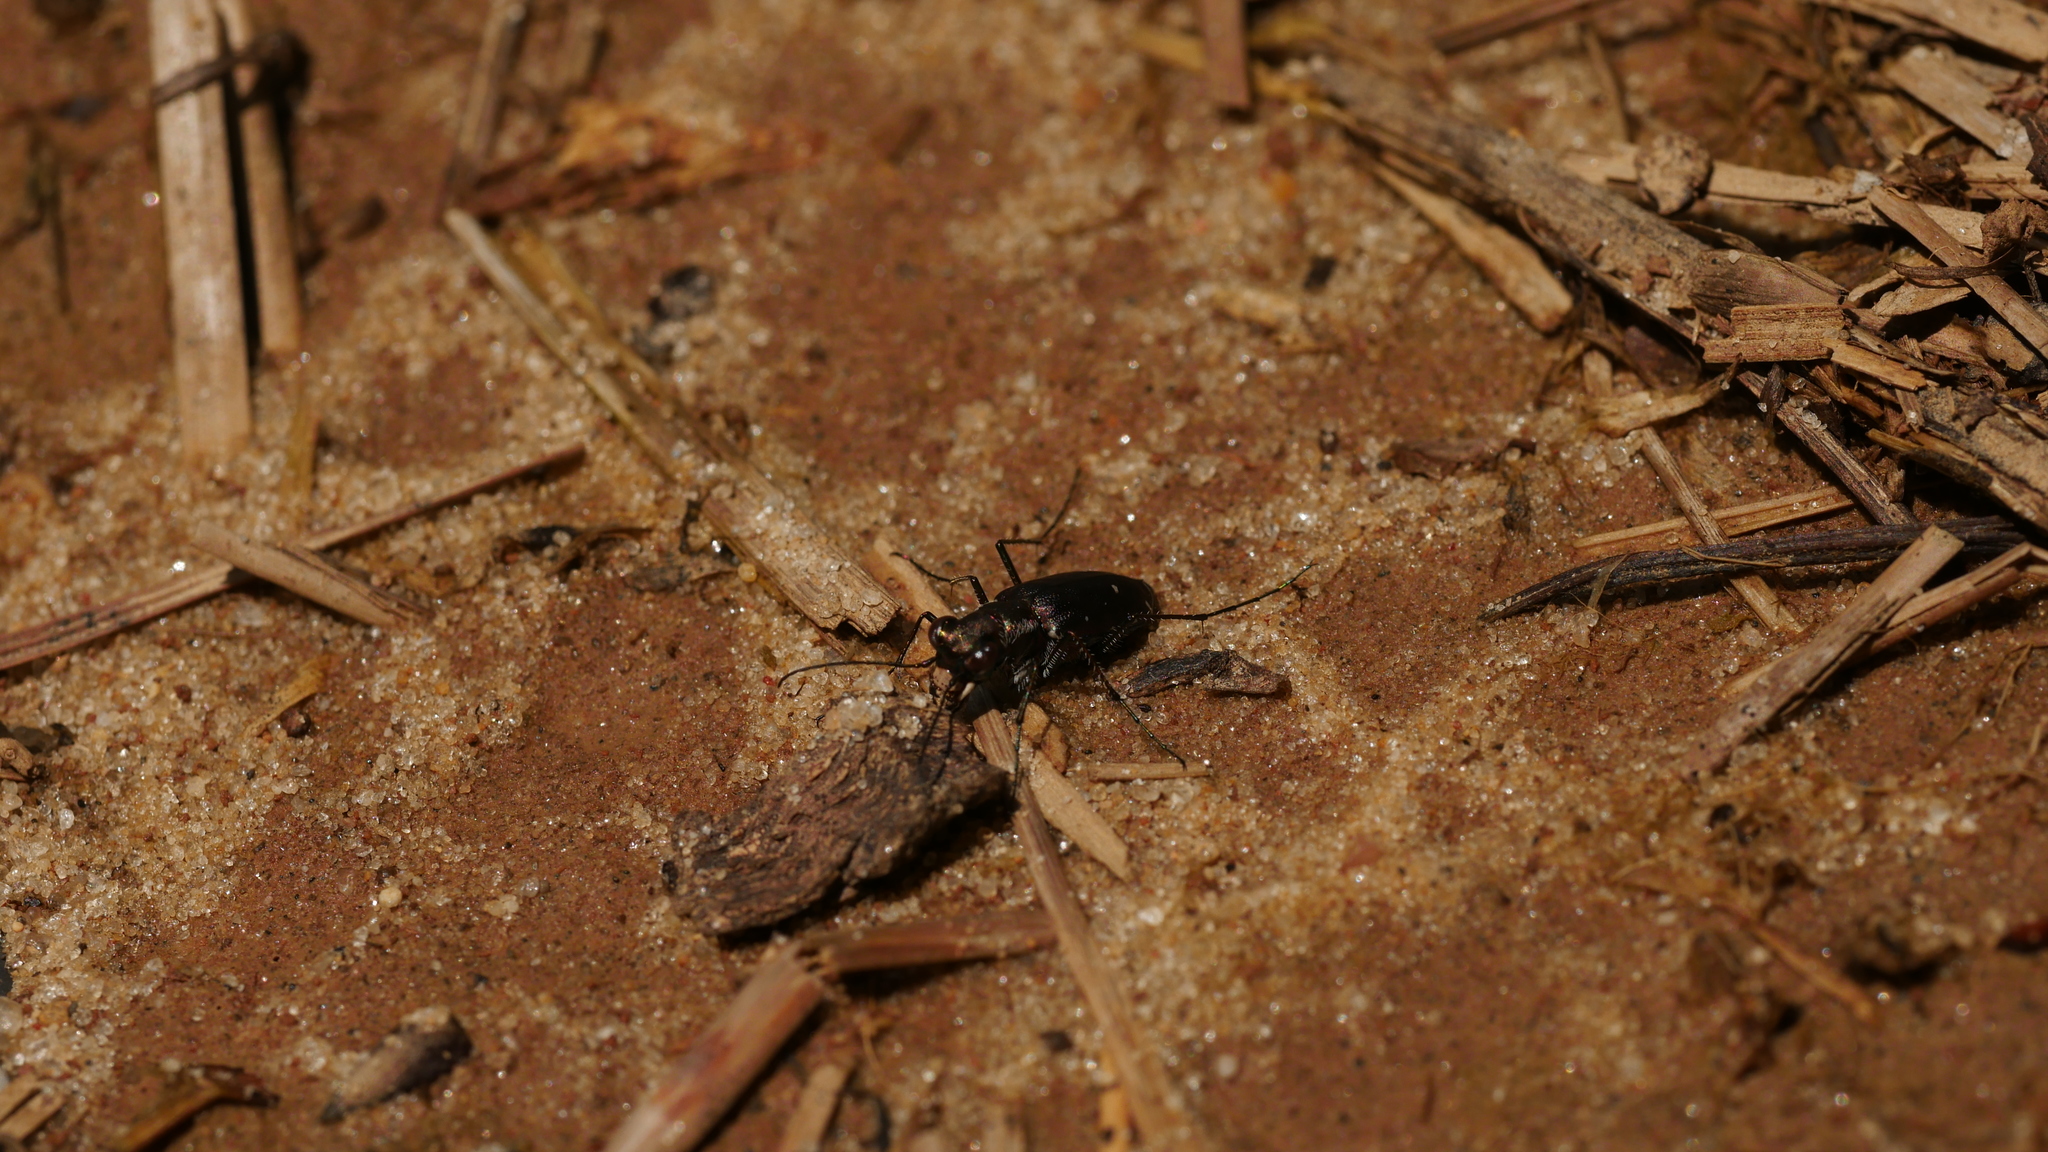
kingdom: Animalia
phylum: Arthropoda
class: Insecta
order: Coleoptera
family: Carabidae
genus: Cicindela
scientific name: Cicindela punctulata
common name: Punctured tiger beetle
